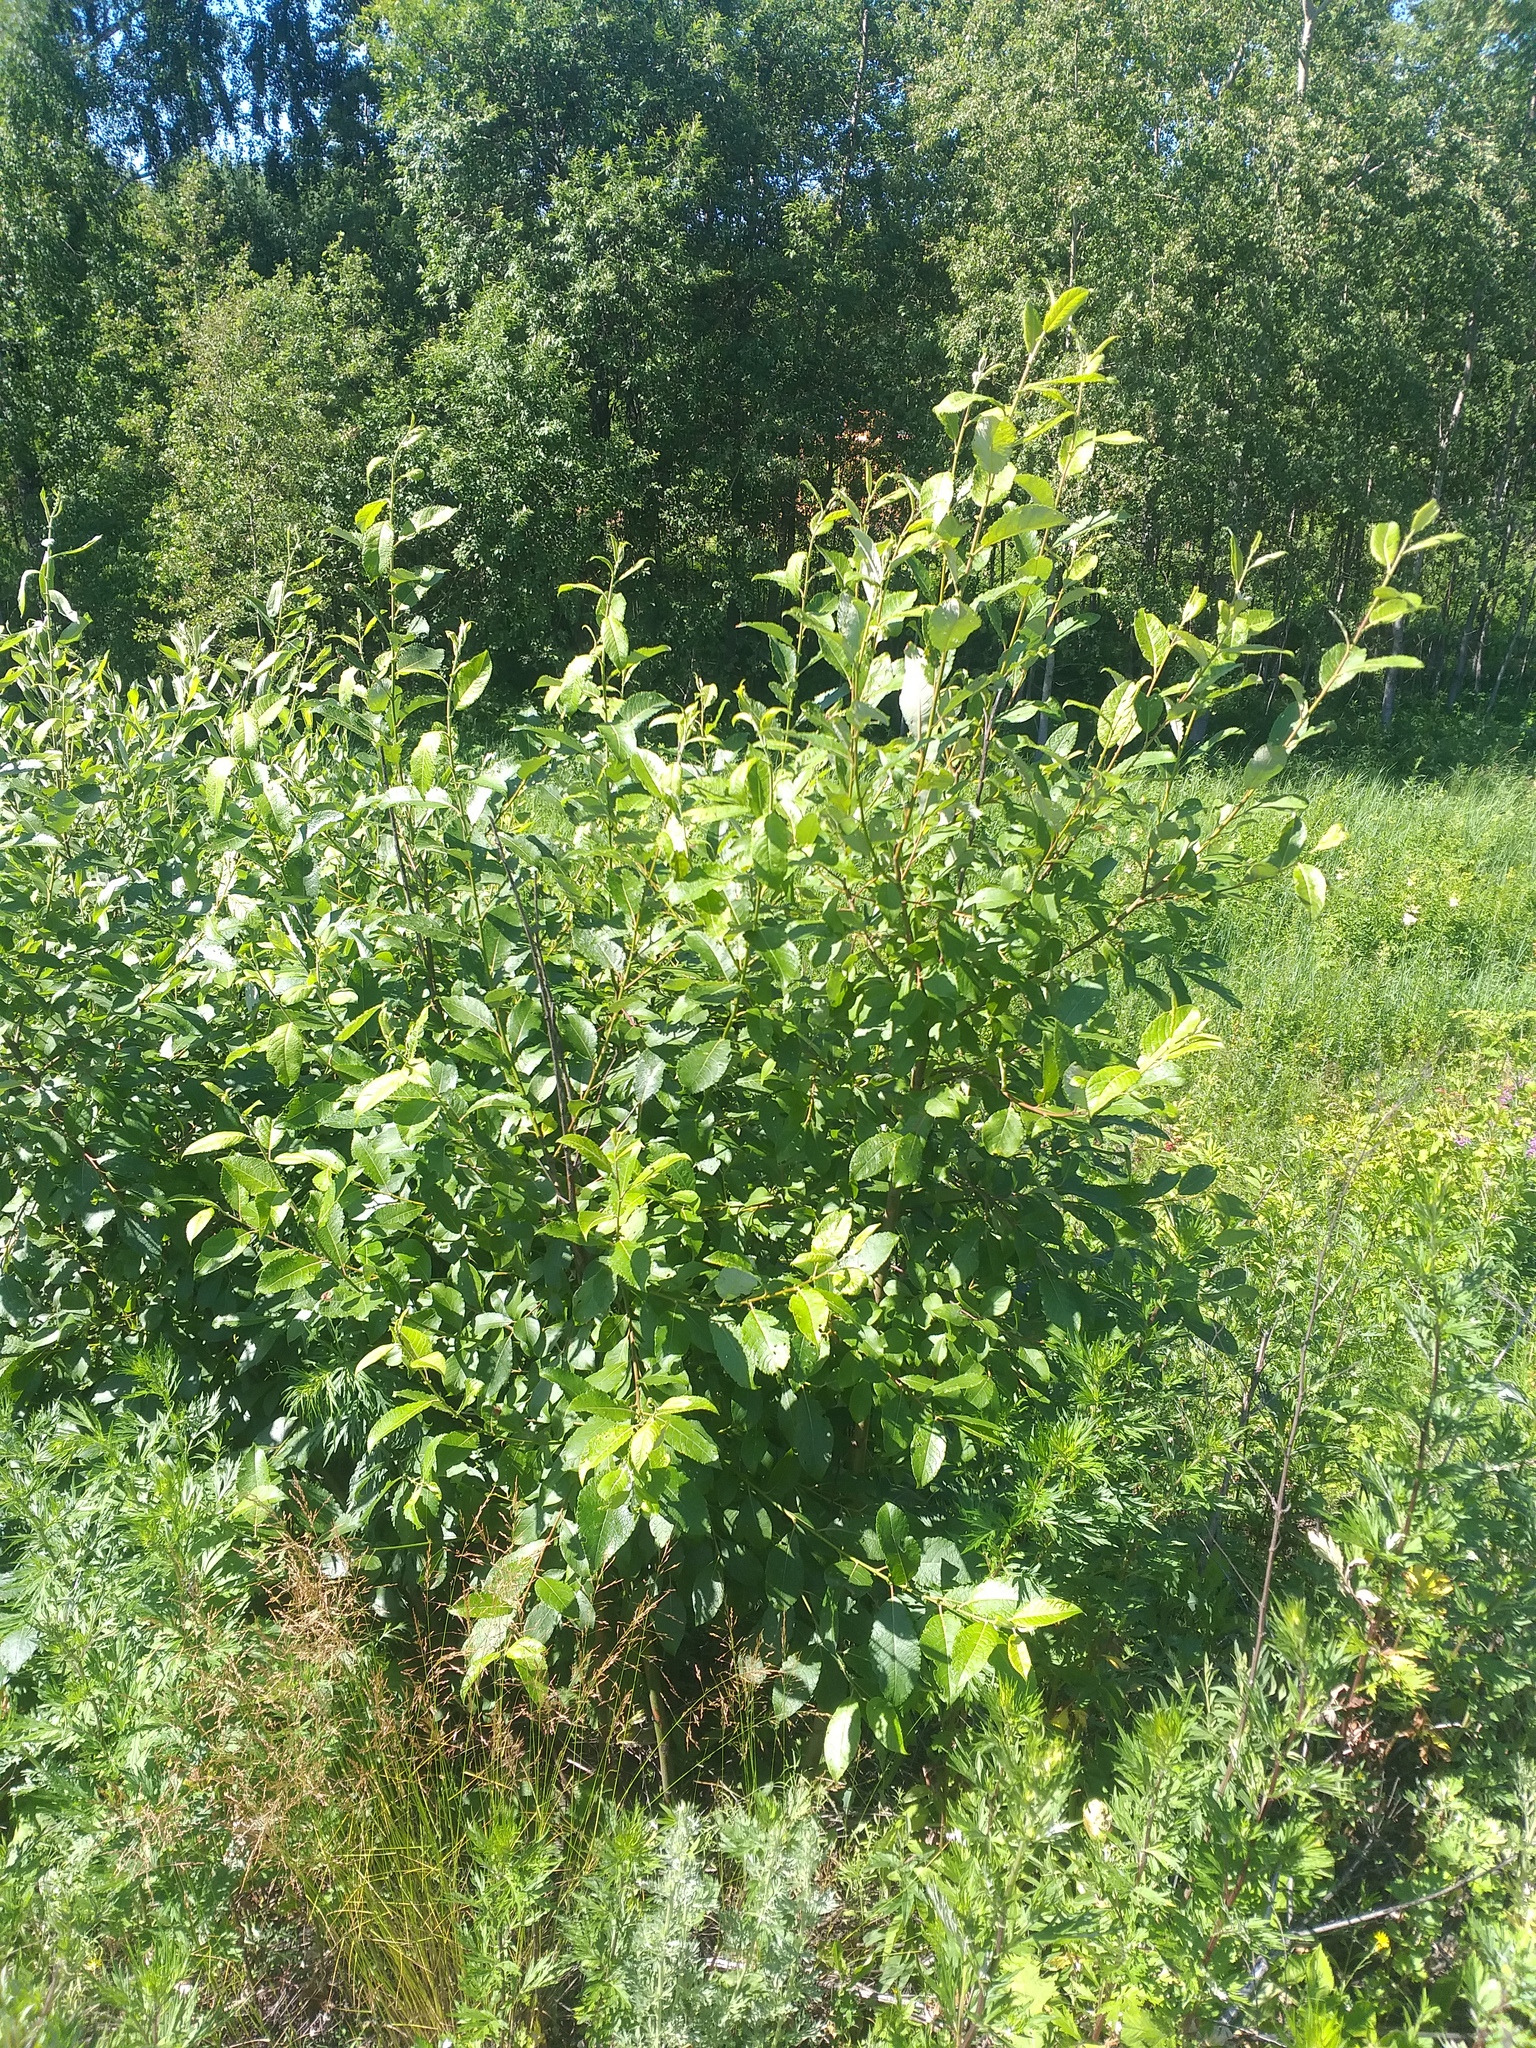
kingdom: Plantae
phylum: Tracheophyta
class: Magnoliopsida
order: Malpighiales
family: Salicaceae
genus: Salix
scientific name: Salix myrsinifolia
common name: Dark-leaved willow
